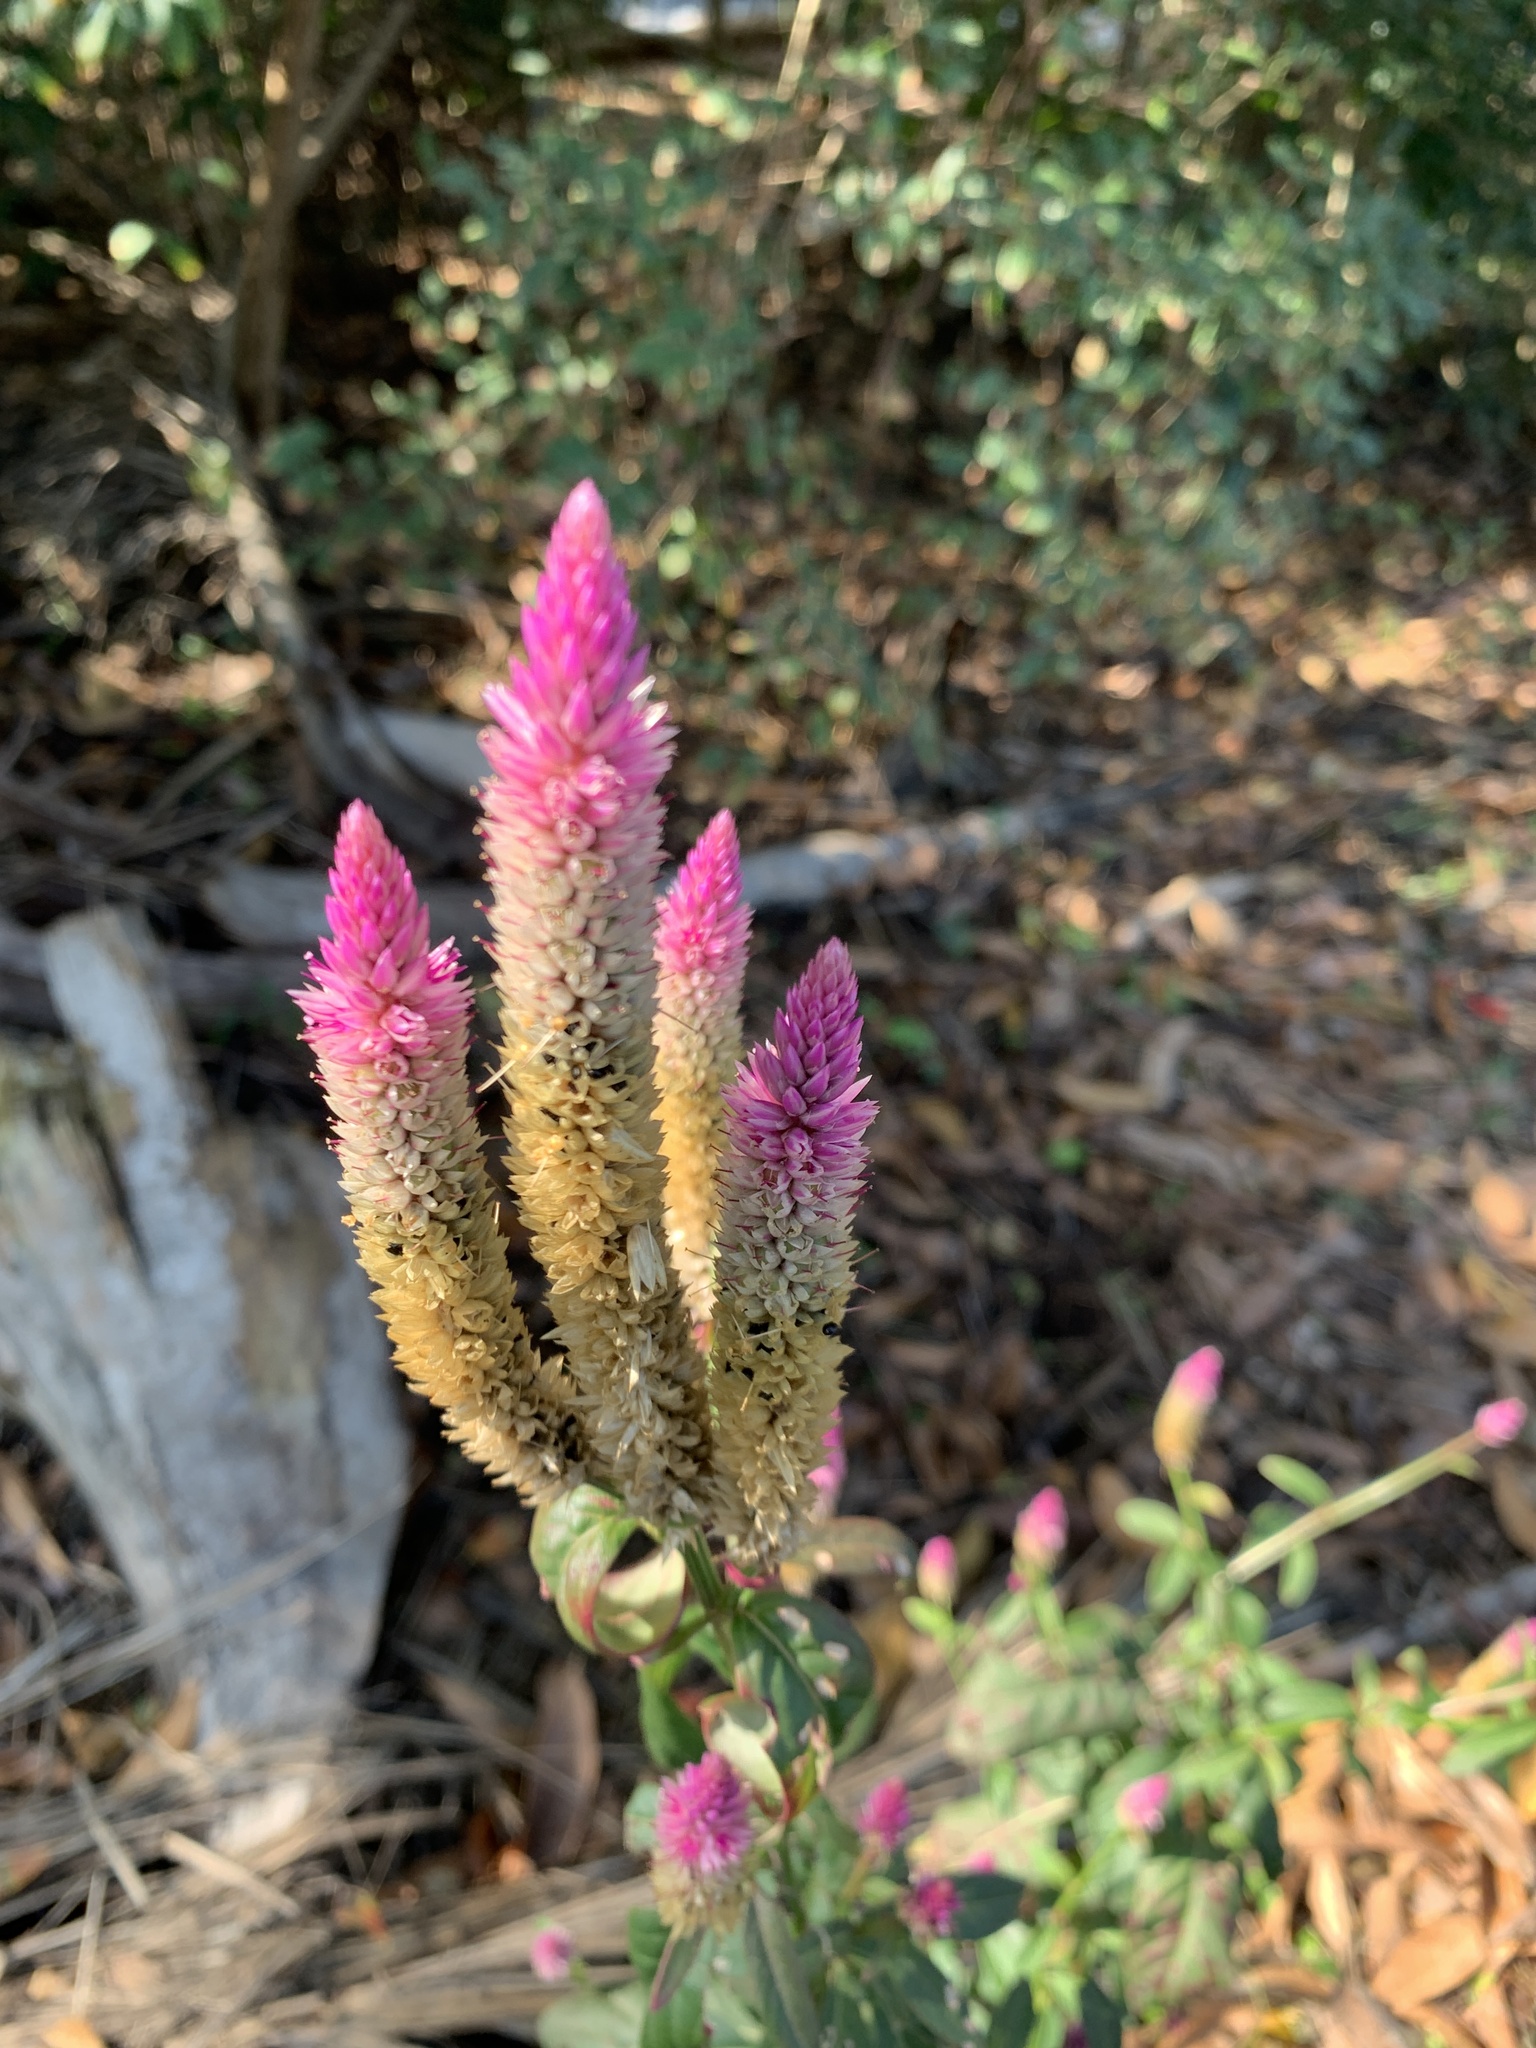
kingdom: Plantae
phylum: Tracheophyta
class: Magnoliopsida
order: Caryophyllales
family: Amaranthaceae
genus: Celosia
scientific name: Celosia argentea
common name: Feather cockscomb
